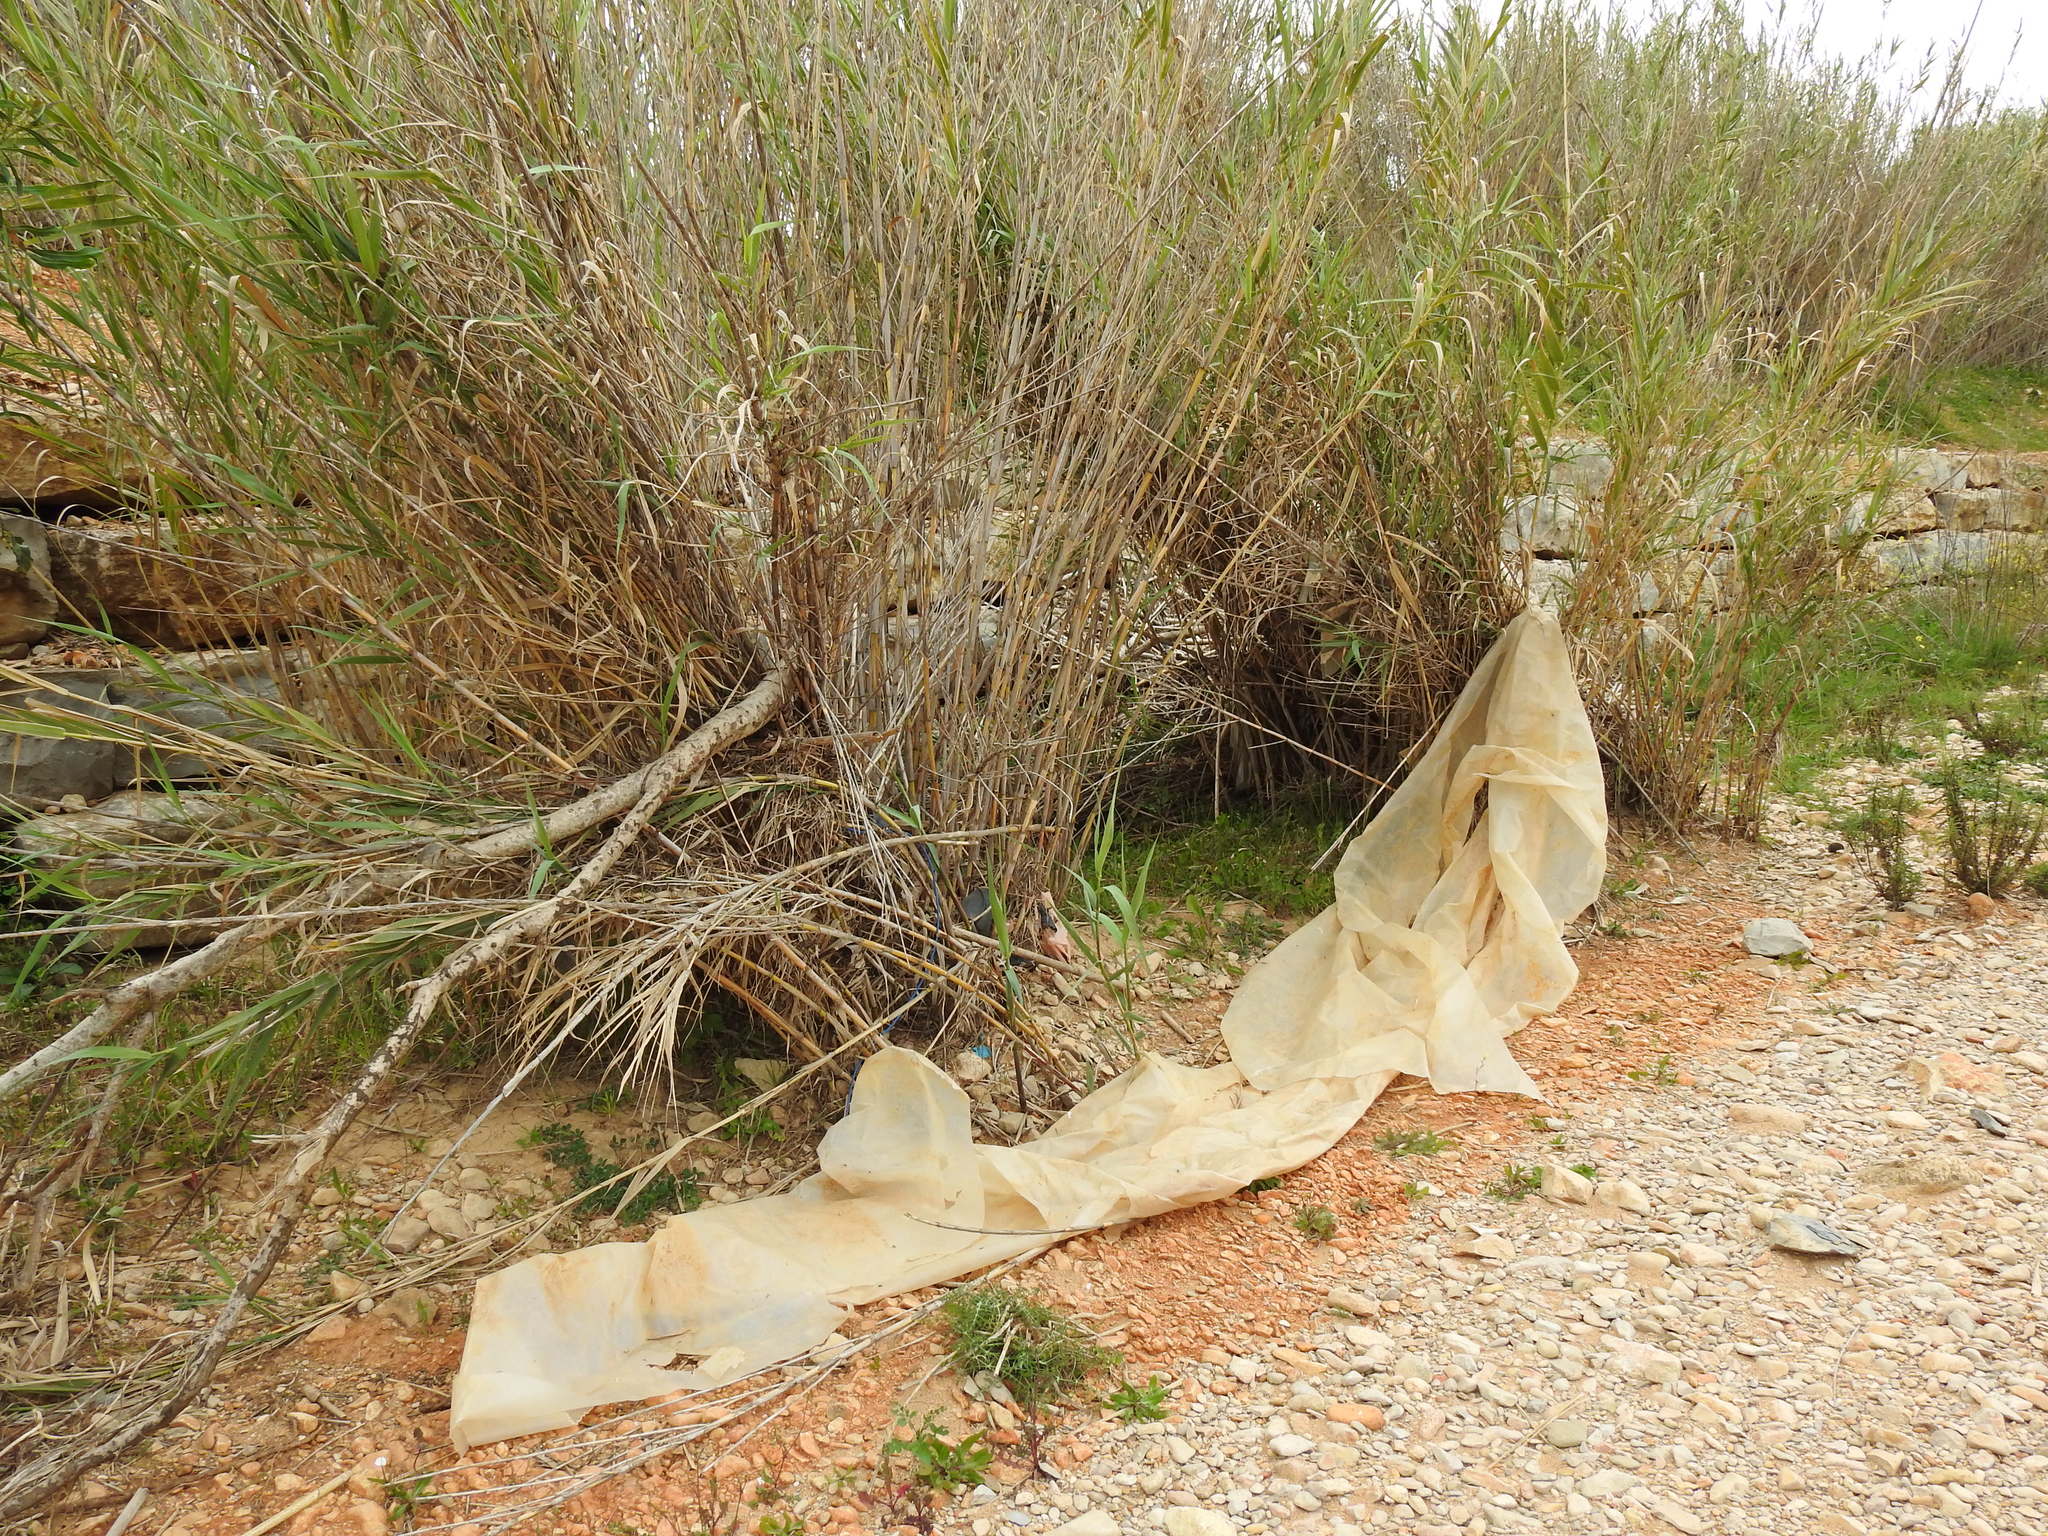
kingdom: Plantae
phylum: Tracheophyta
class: Liliopsida
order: Poales
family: Poaceae
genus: Arundo
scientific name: Arundo donax
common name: Giant reed
